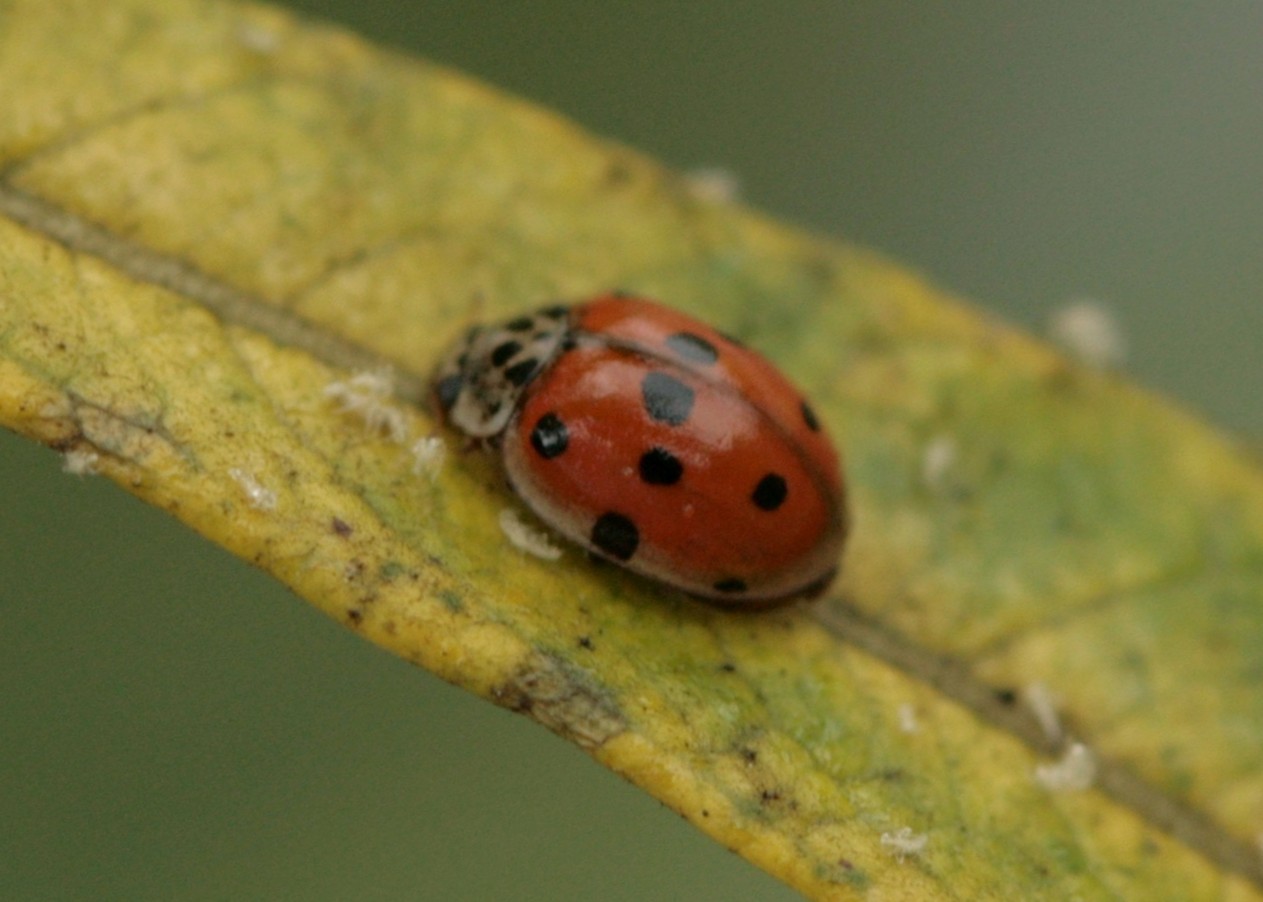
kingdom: Animalia
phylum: Arthropoda
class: Insecta
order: Coleoptera
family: Coccinellidae
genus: Adalia
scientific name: Adalia decempunctata
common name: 10-spot ladybird
